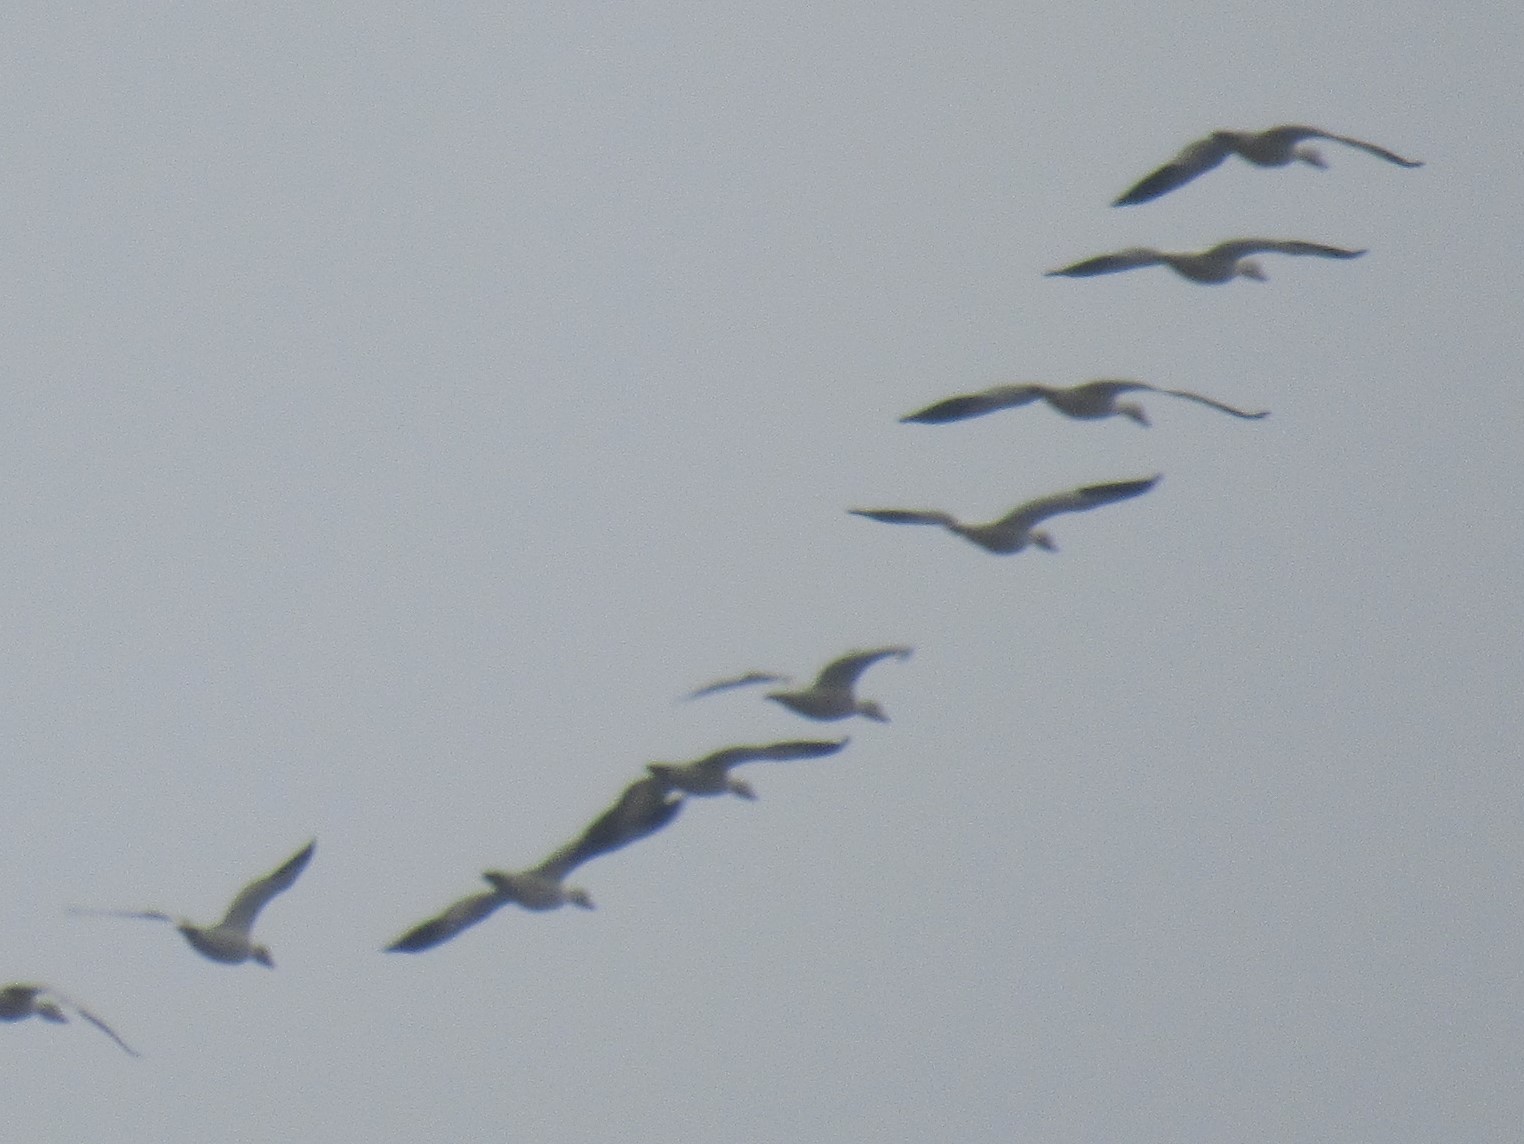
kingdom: Animalia
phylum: Chordata
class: Aves
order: Anseriformes
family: Anatidae
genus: Anser
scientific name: Anser caerulescens
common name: Snow goose
